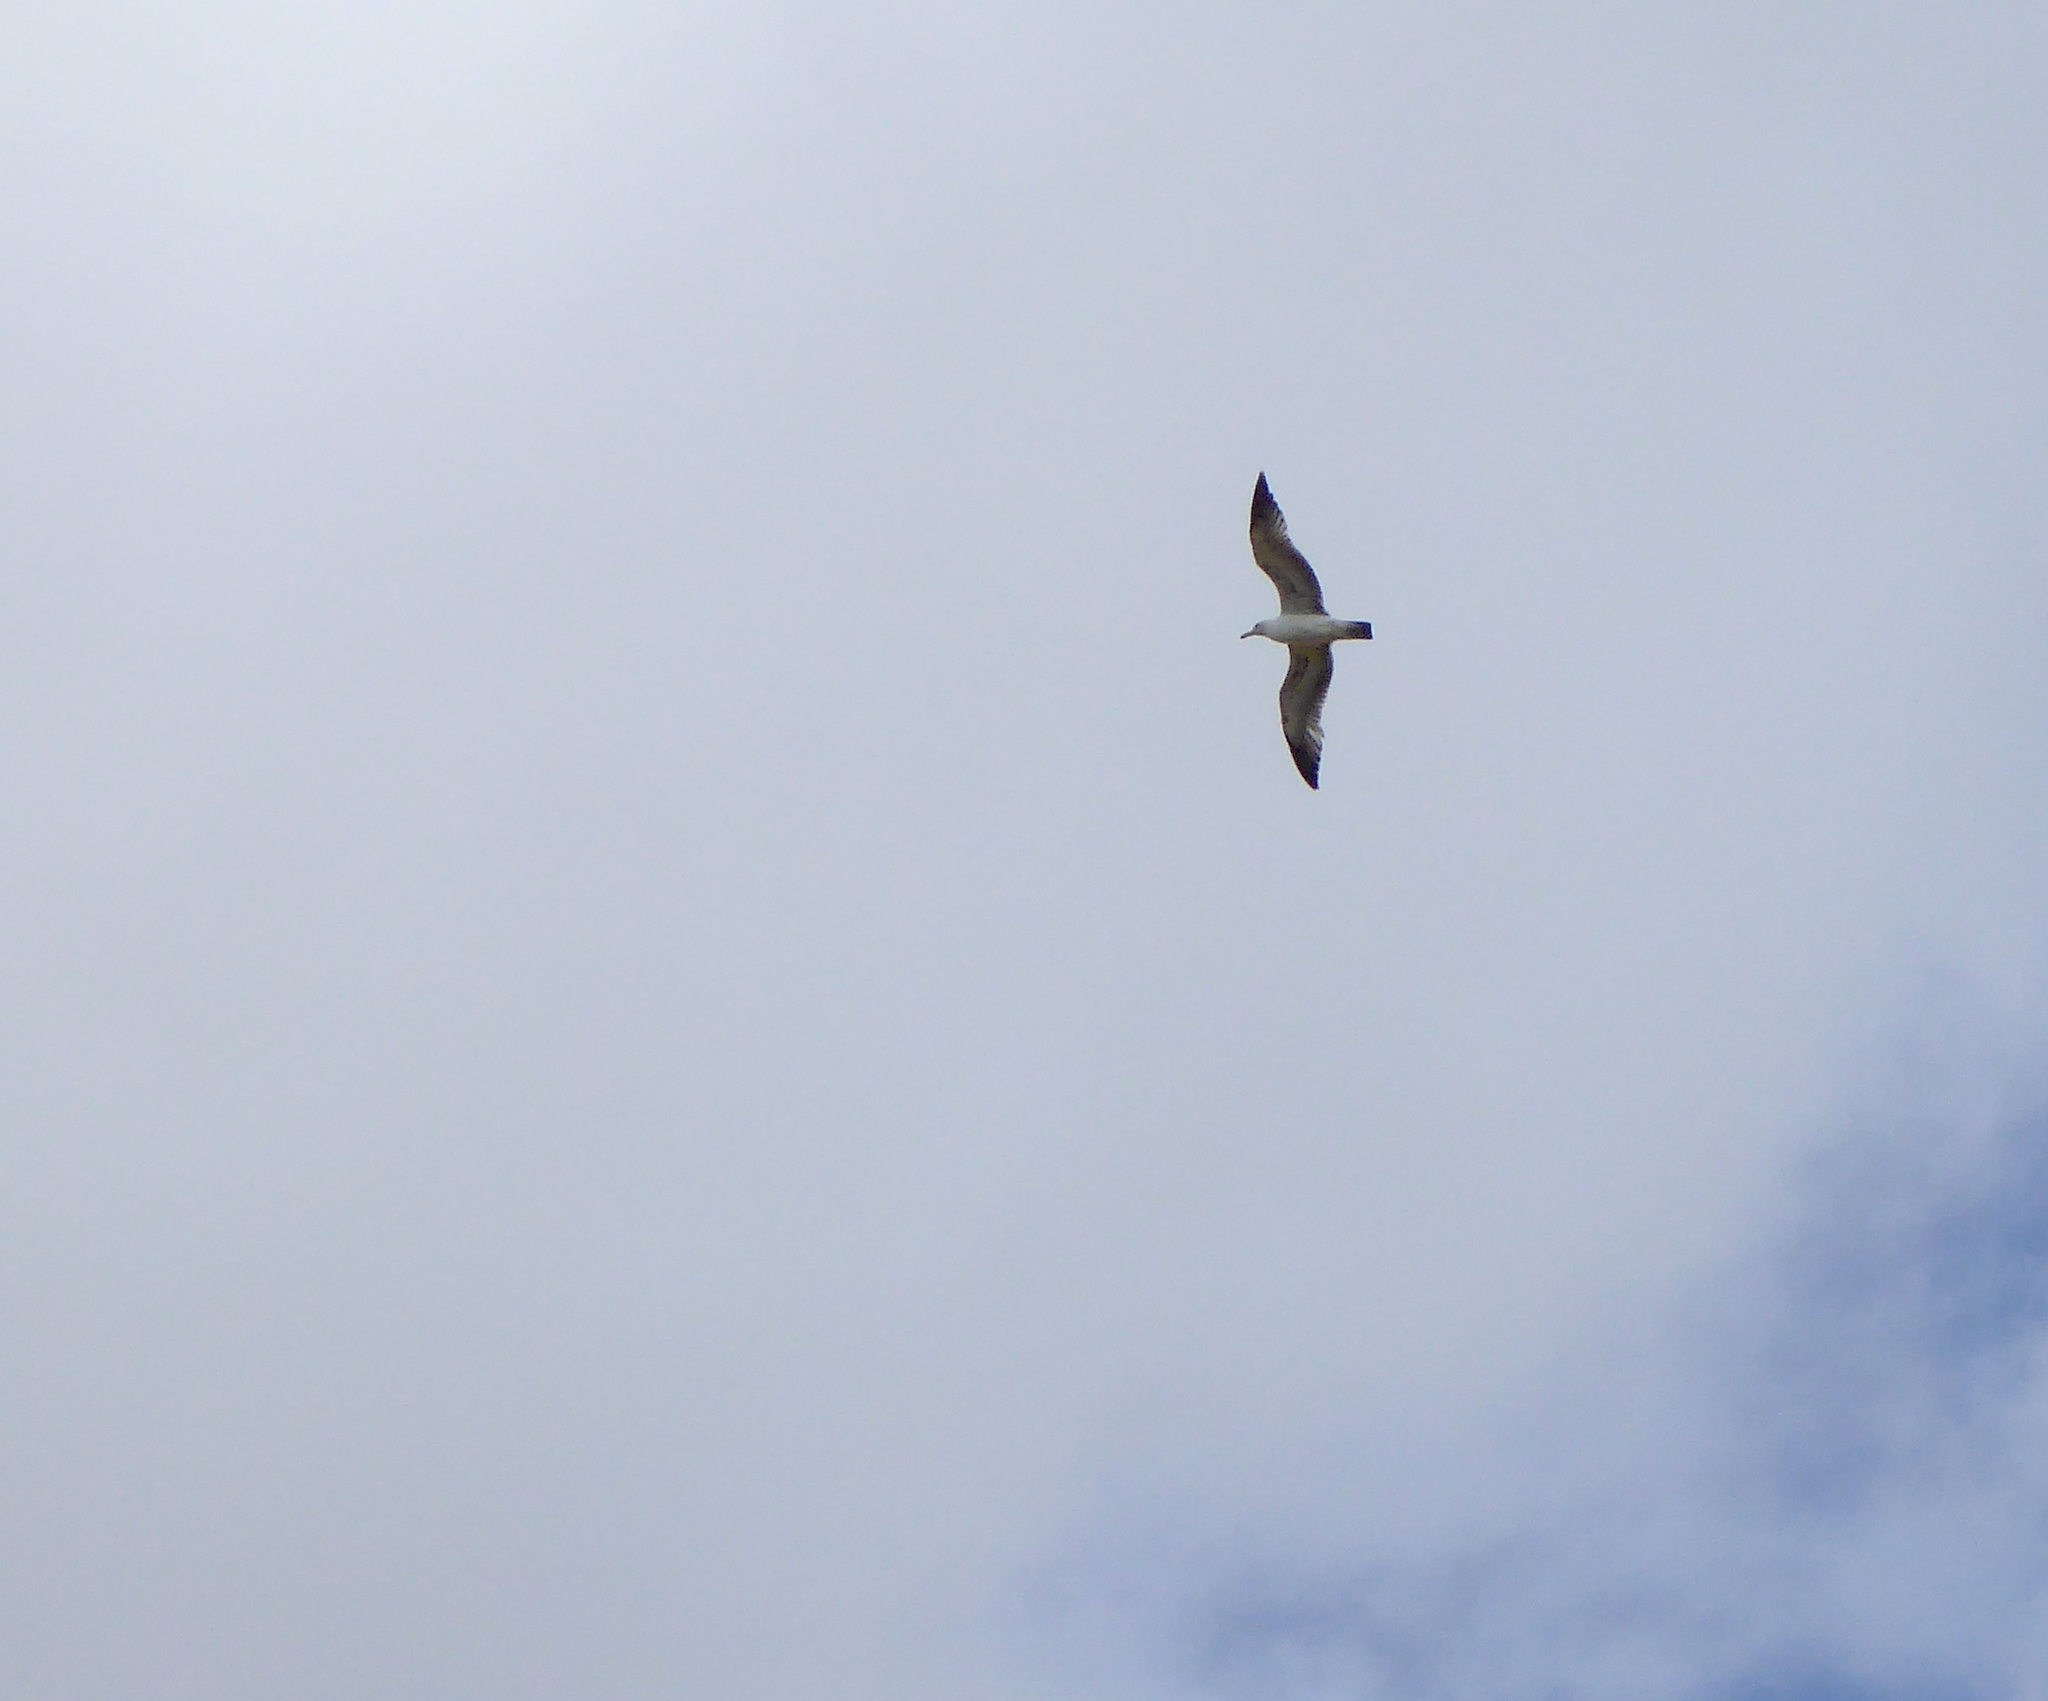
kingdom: Animalia
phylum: Chordata
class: Aves
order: Charadriiformes
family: Laridae
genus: Larus
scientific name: Larus californicus
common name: California gull
